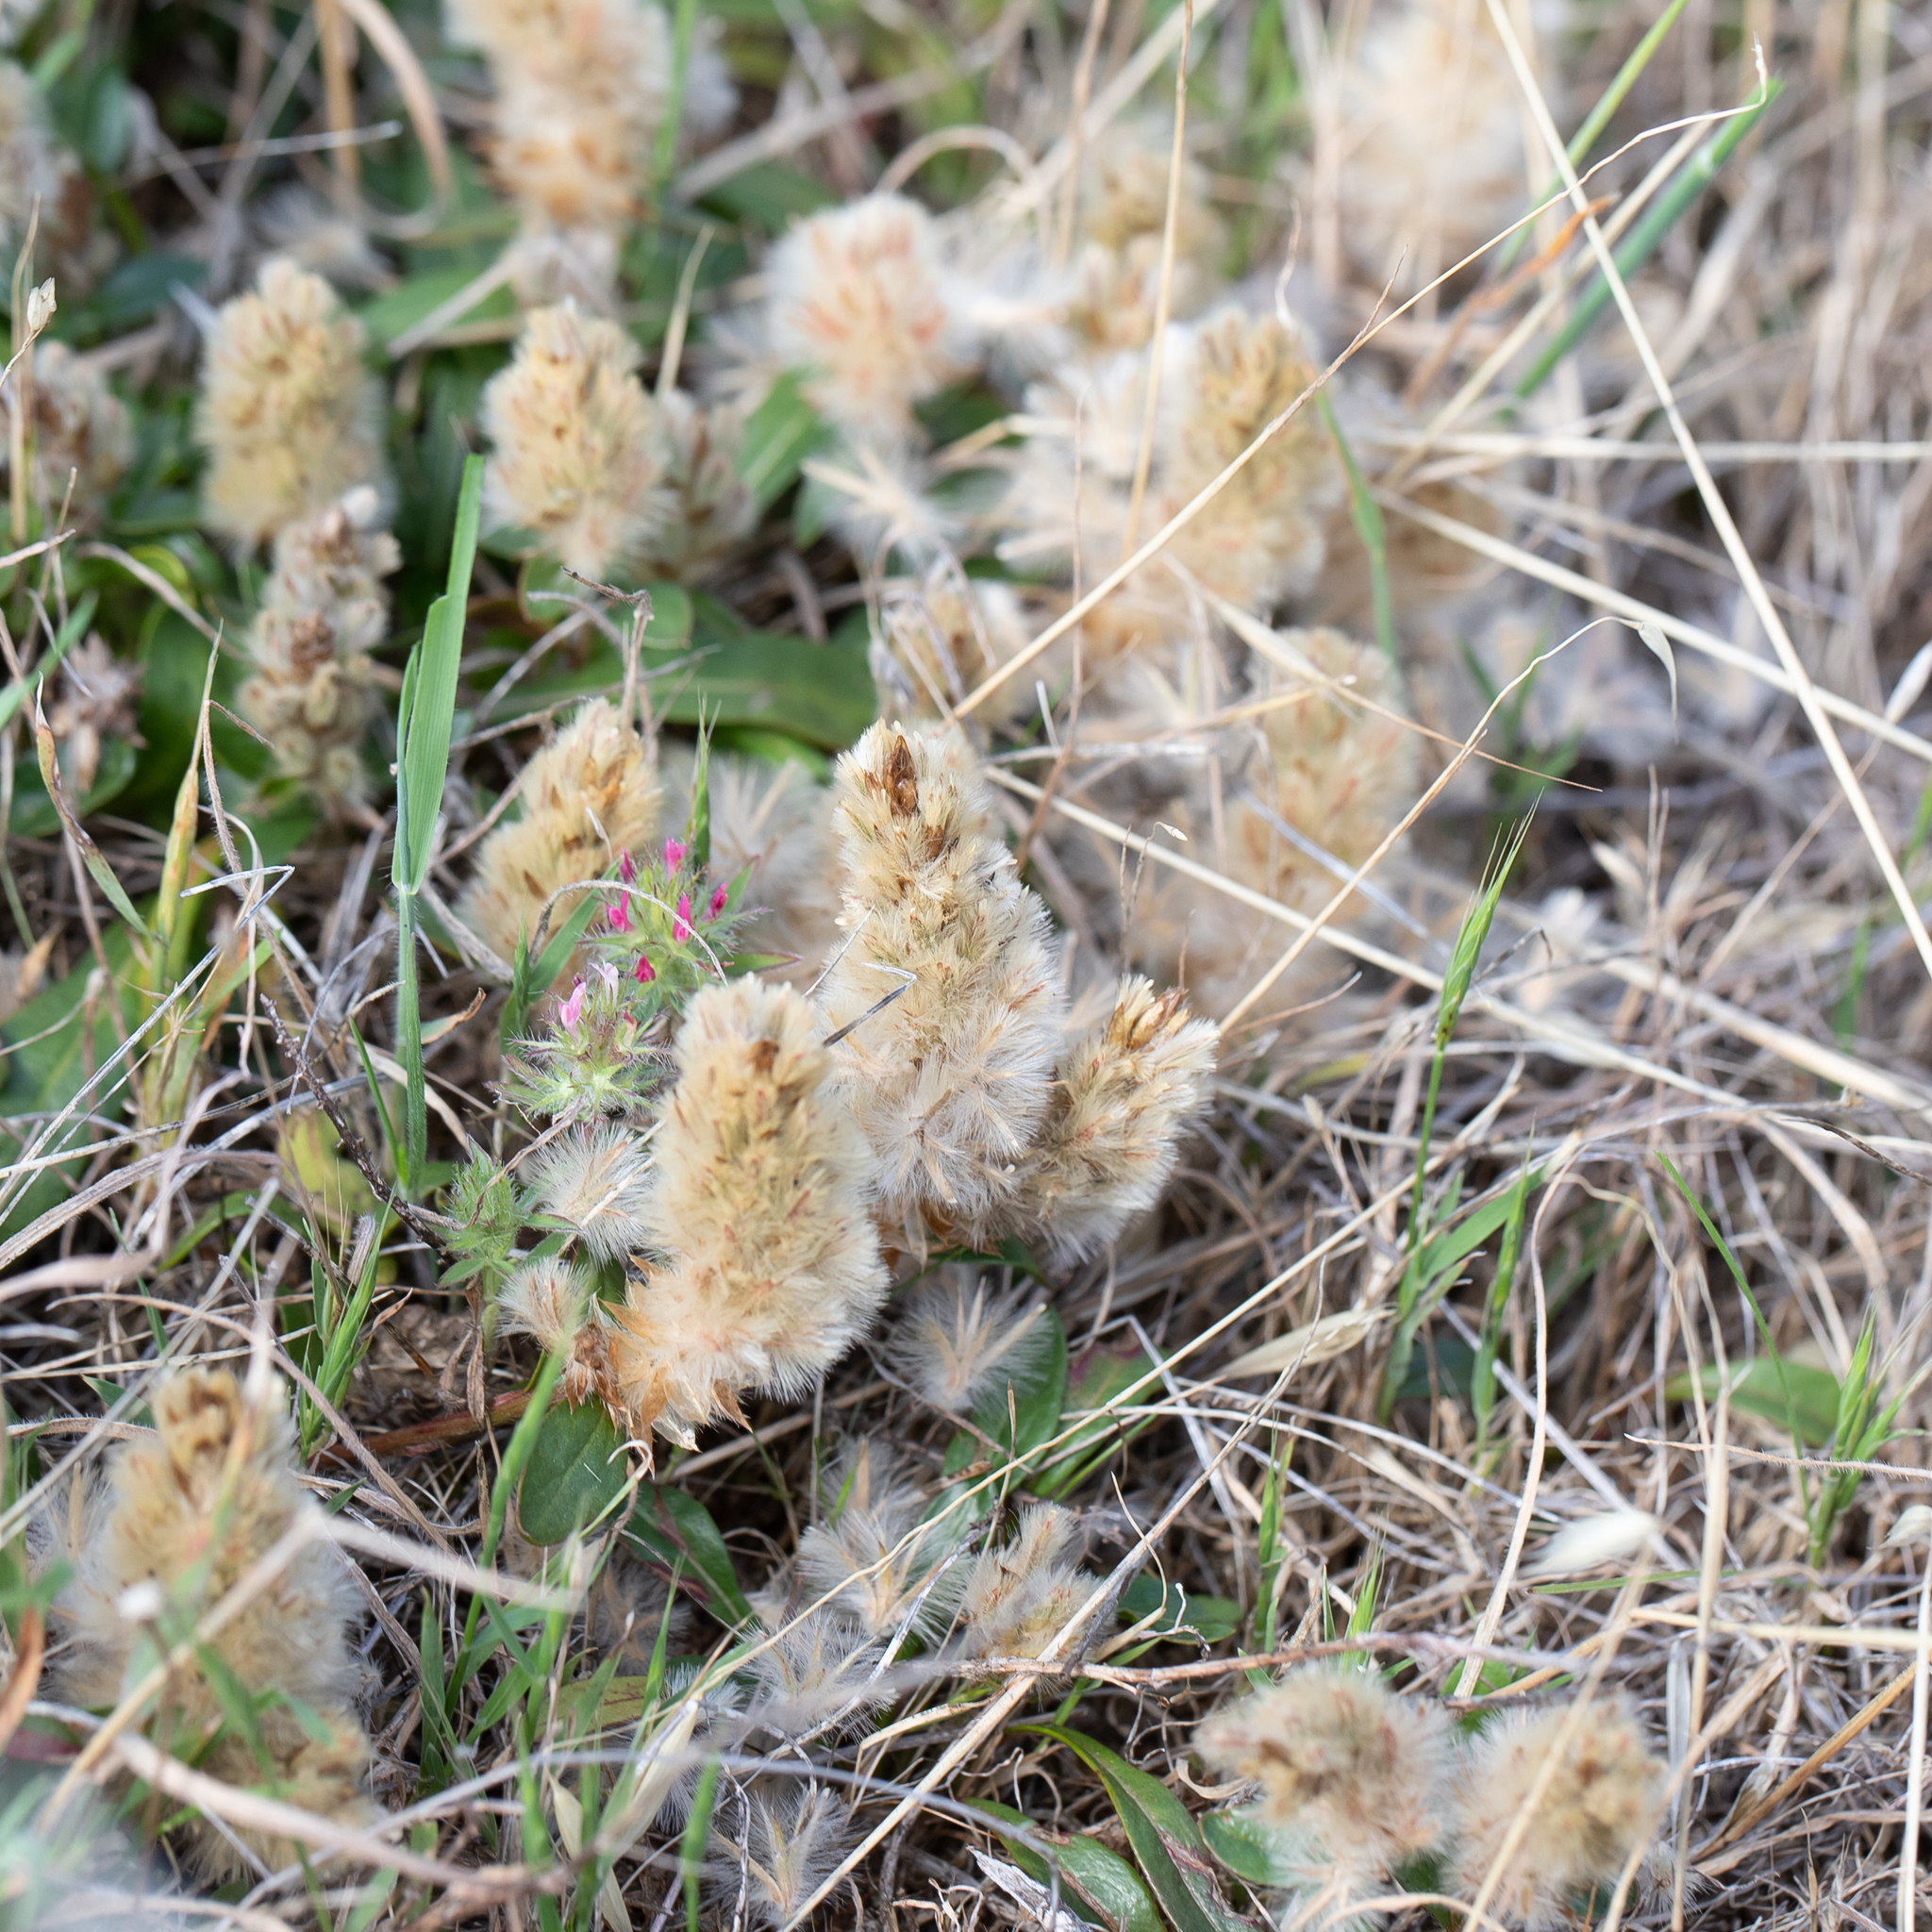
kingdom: Plantae
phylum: Tracheophyta
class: Magnoliopsida
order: Caryophyllales
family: Amaranthaceae
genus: Ptilotus
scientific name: Ptilotus spathulatus
